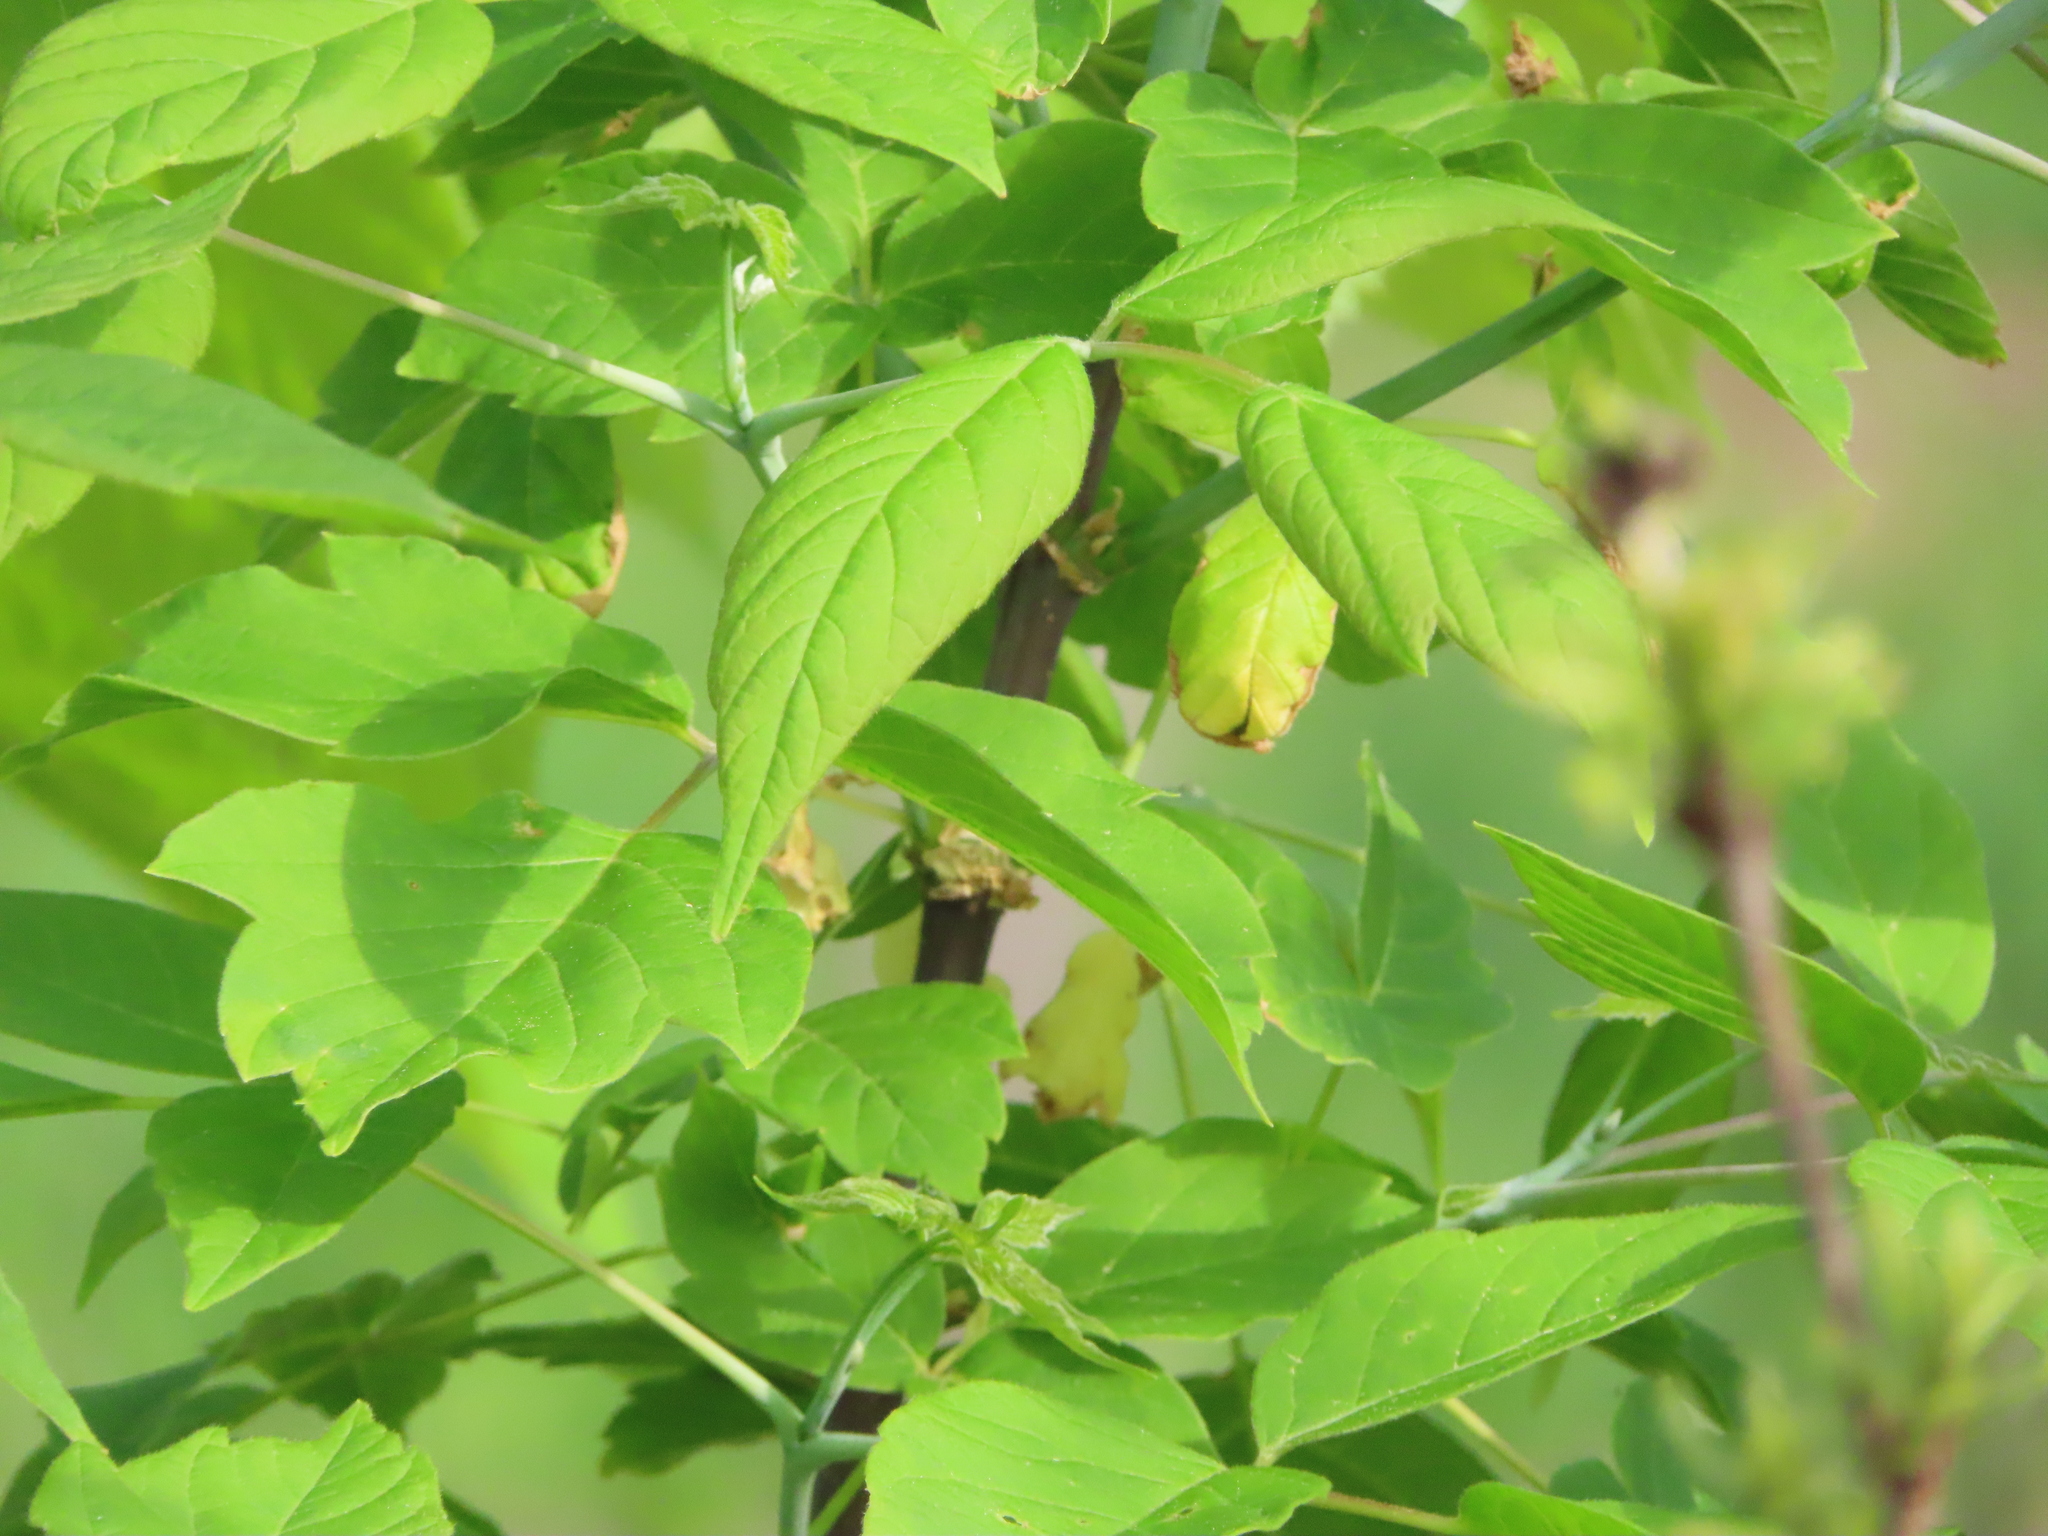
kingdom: Plantae
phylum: Tracheophyta
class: Magnoliopsida
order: Sapindales
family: Sapindaceae
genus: Acer
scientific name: Acer negundo
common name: Ashleaf maple
